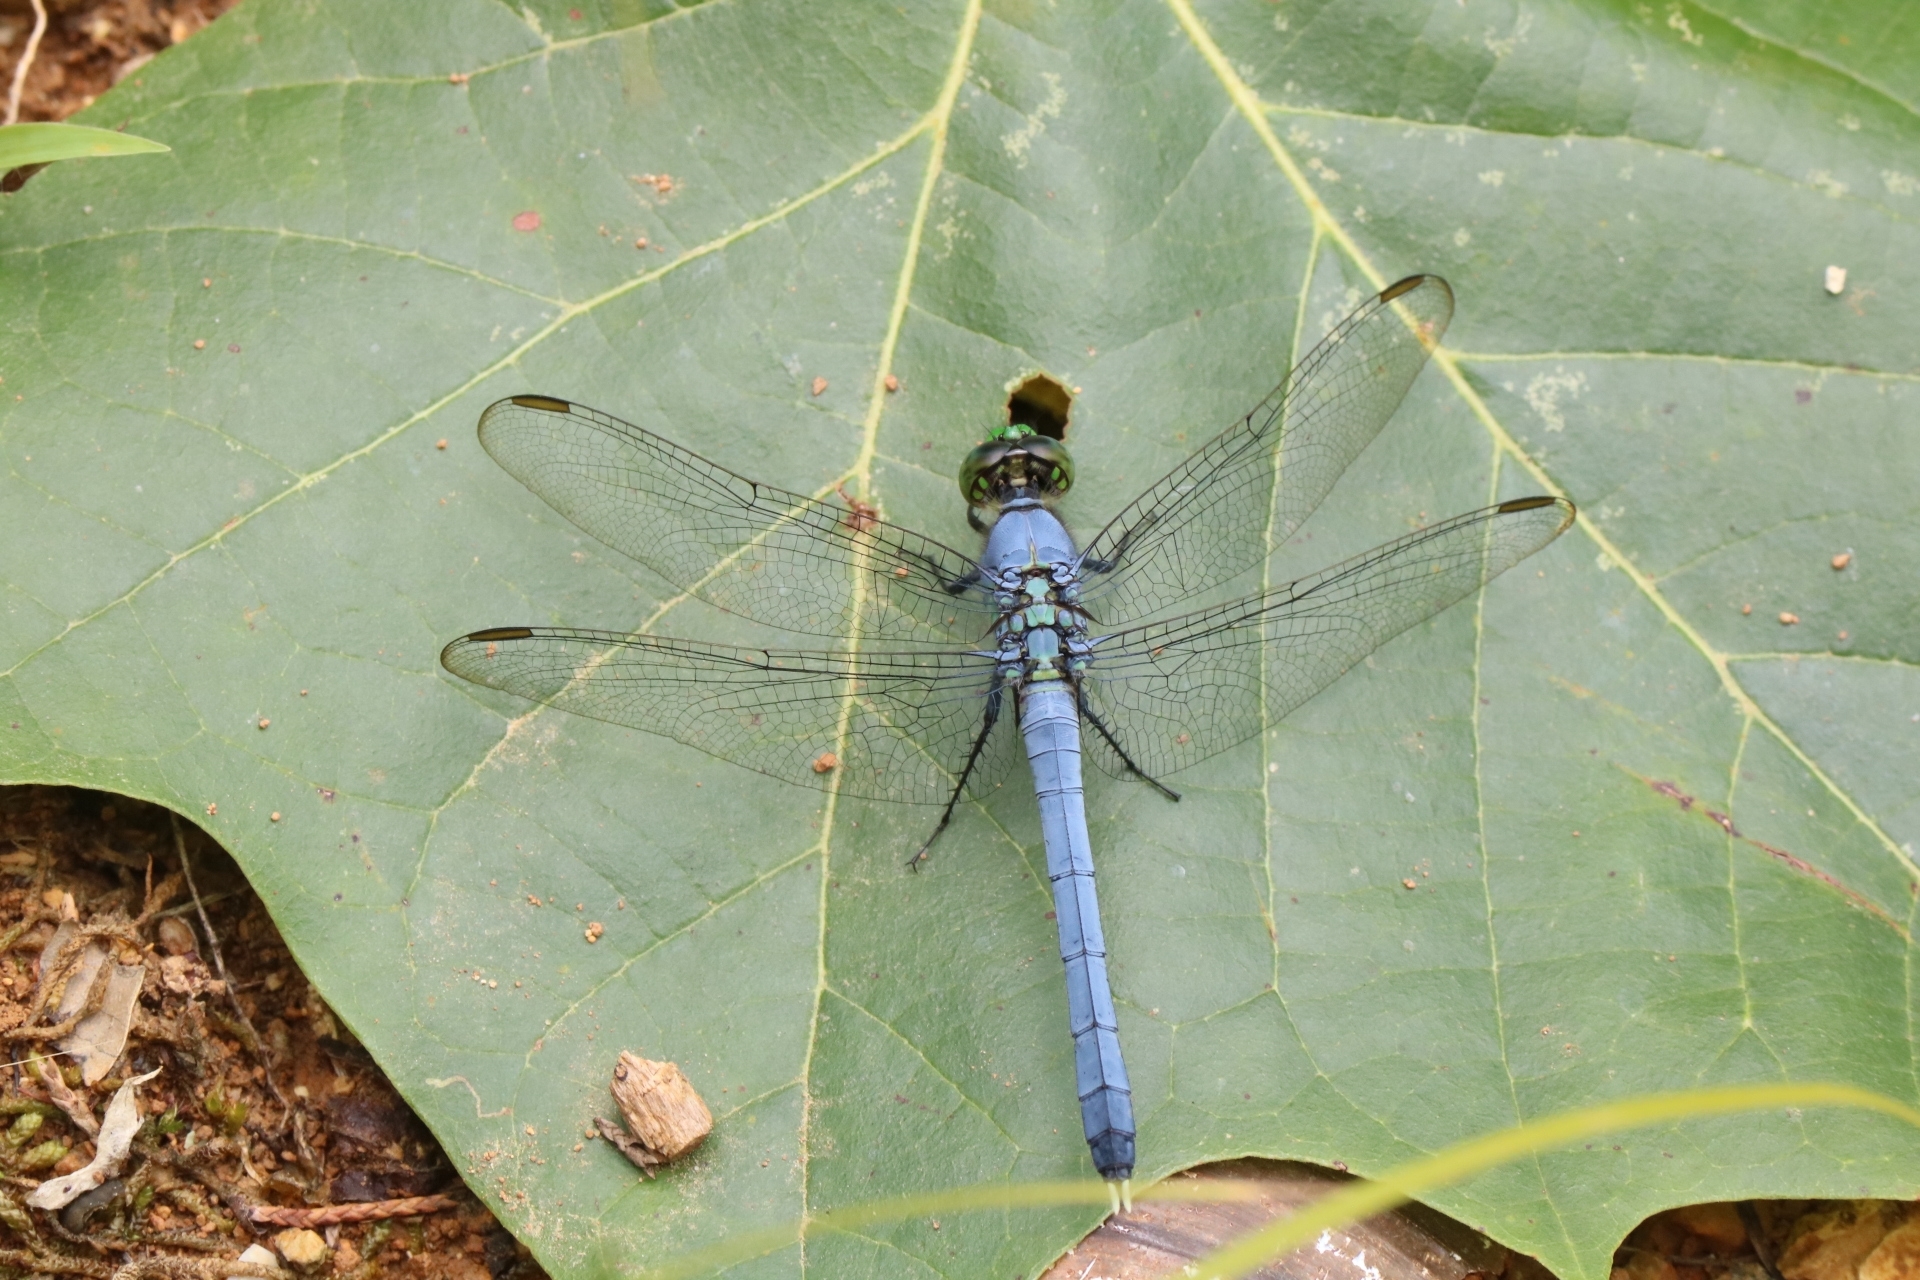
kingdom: Animalia
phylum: Arthropoda
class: Insecta
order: Odonata
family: Libellulidae
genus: Erythemis
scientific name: Erythemis simplicicollis
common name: Eastern pondhawk
